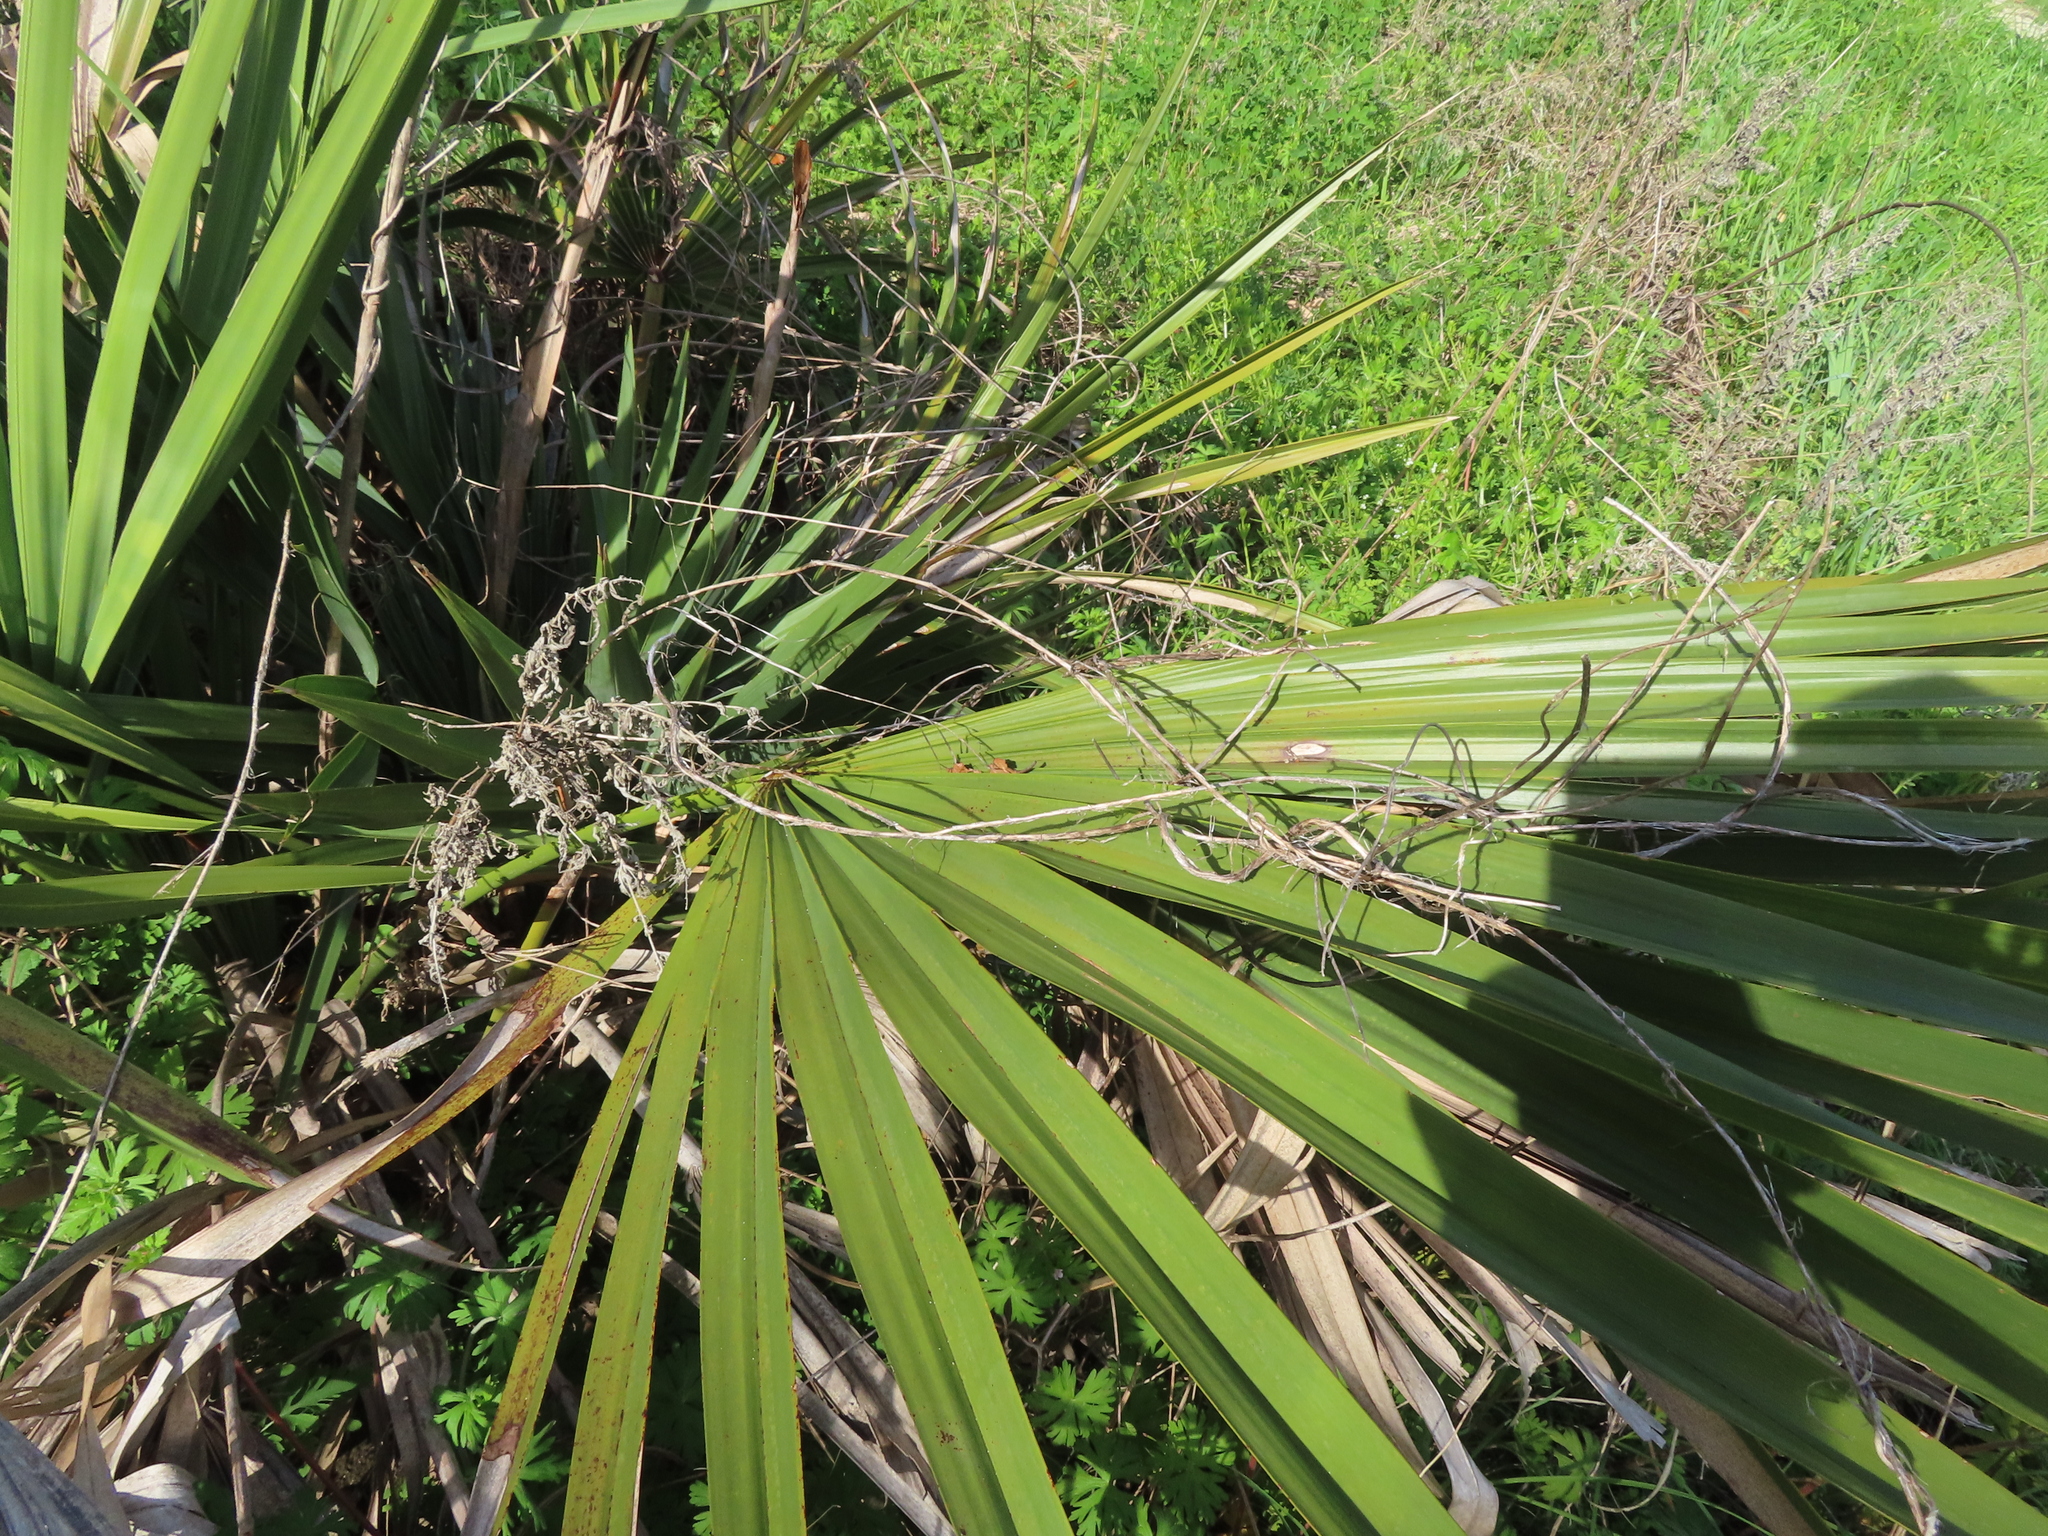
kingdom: Plantae
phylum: Tracheophyta
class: Liliopsida
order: Arecales
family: Arecaceae
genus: Sabal
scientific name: Sabal minor
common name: Dwarf palmetto
